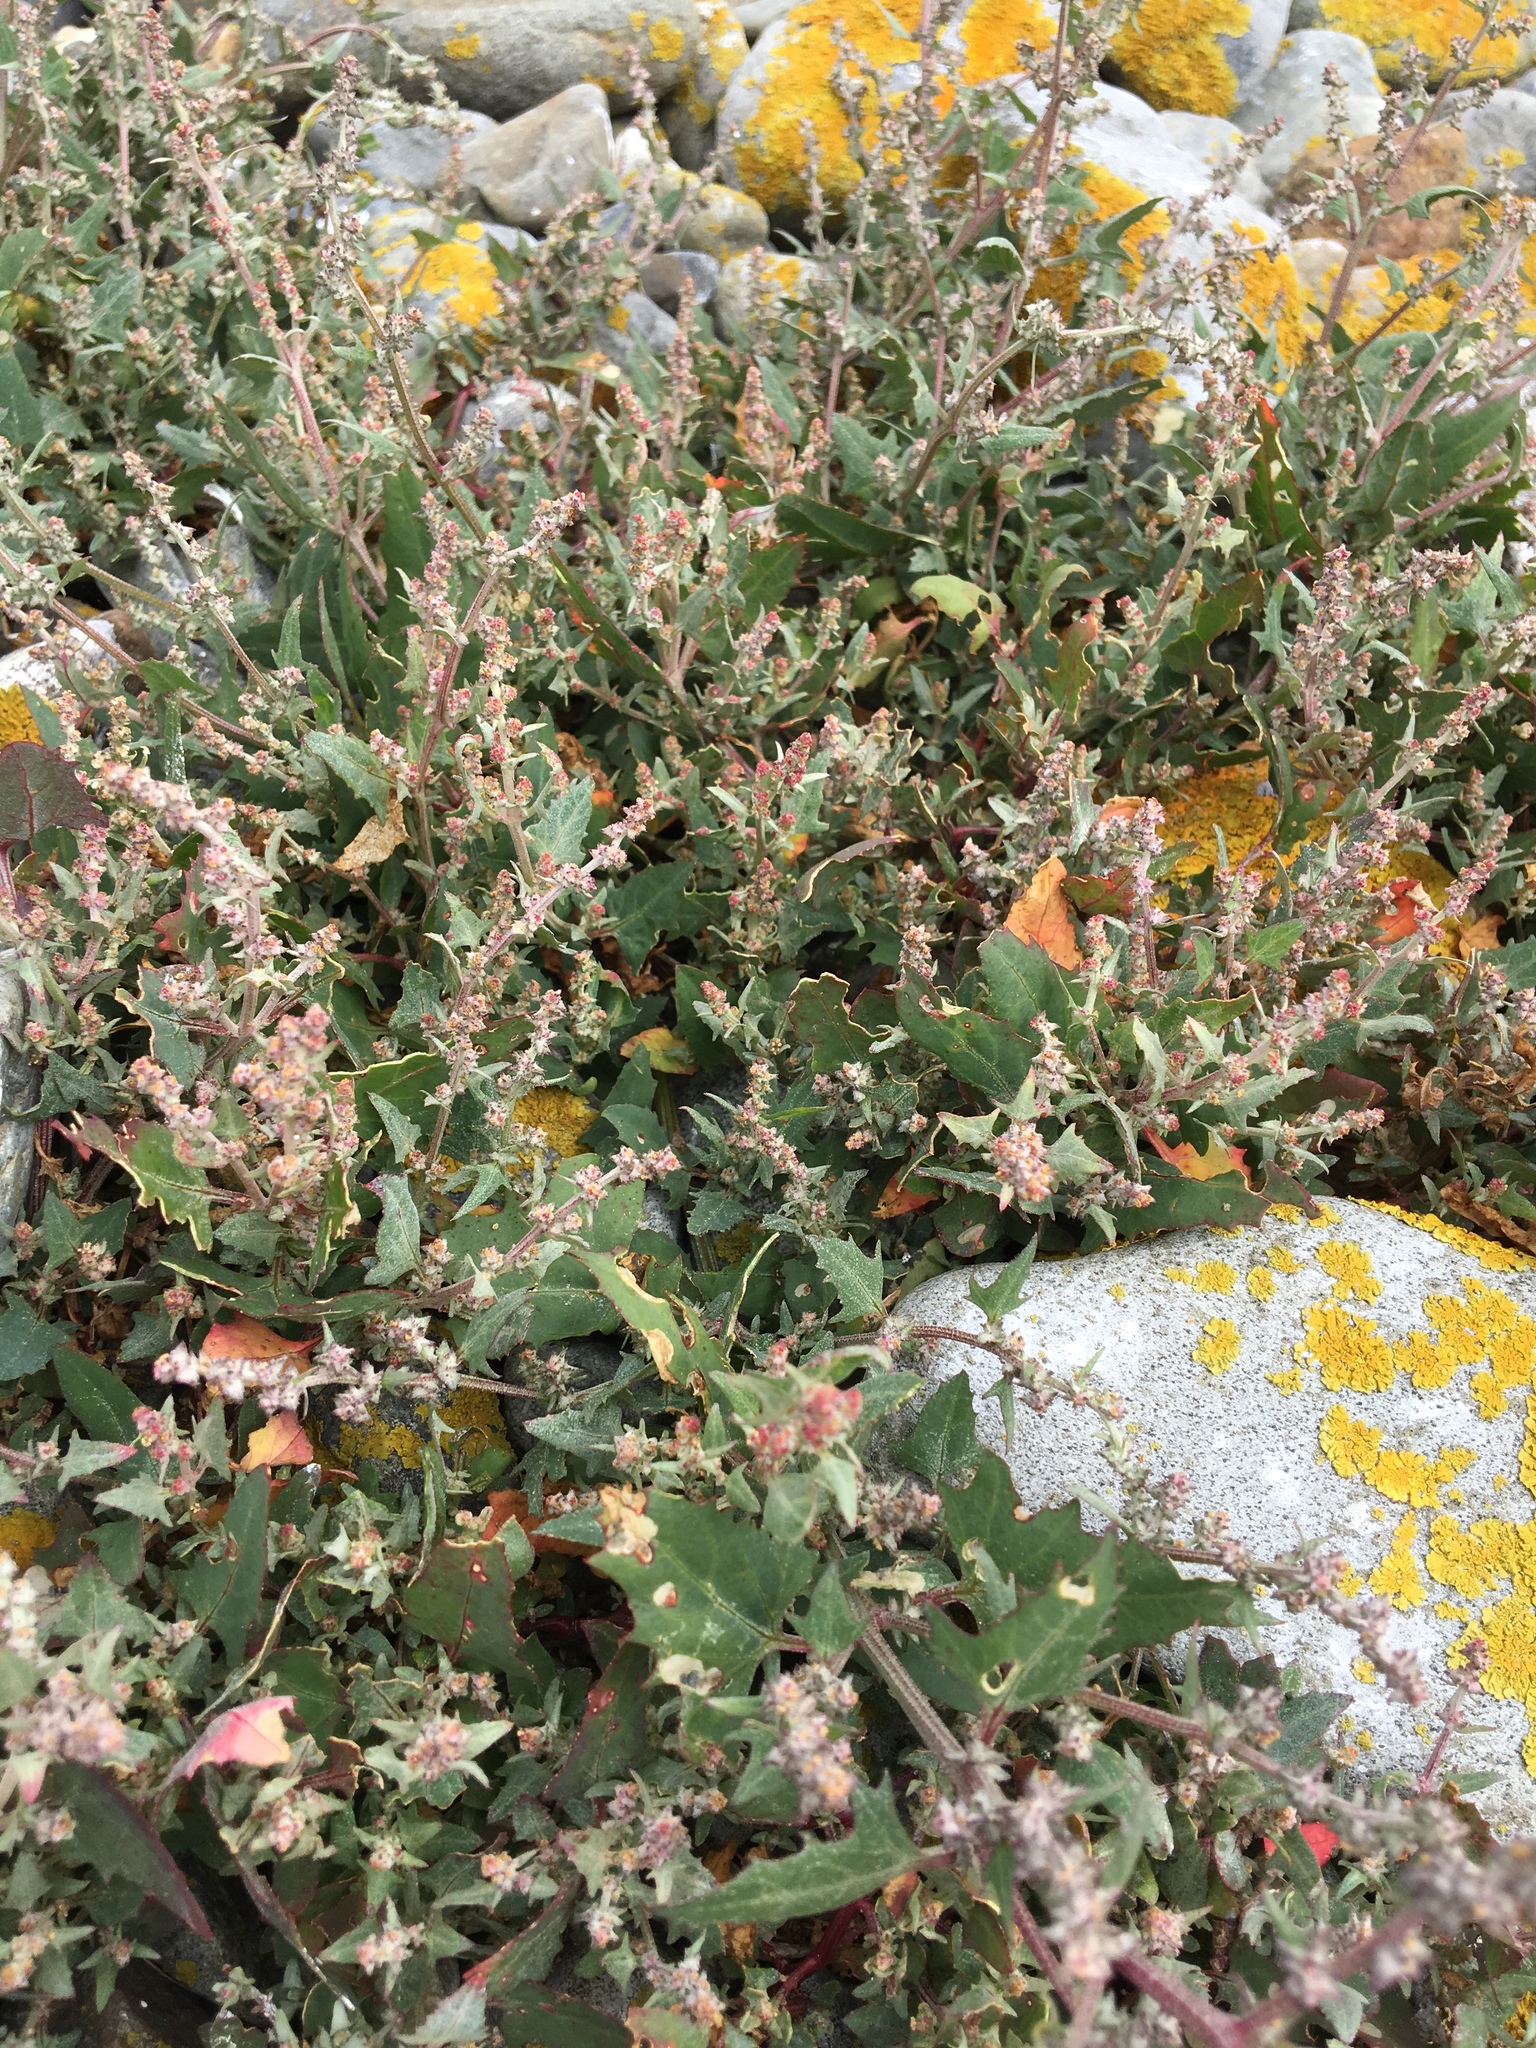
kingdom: Plantae
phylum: Tracheophyta
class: Magnoliopsida
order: Caryophyllales
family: Amaranthaceae
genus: Atriplex
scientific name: Atriplex prostrata
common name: Spear-leaved orache
